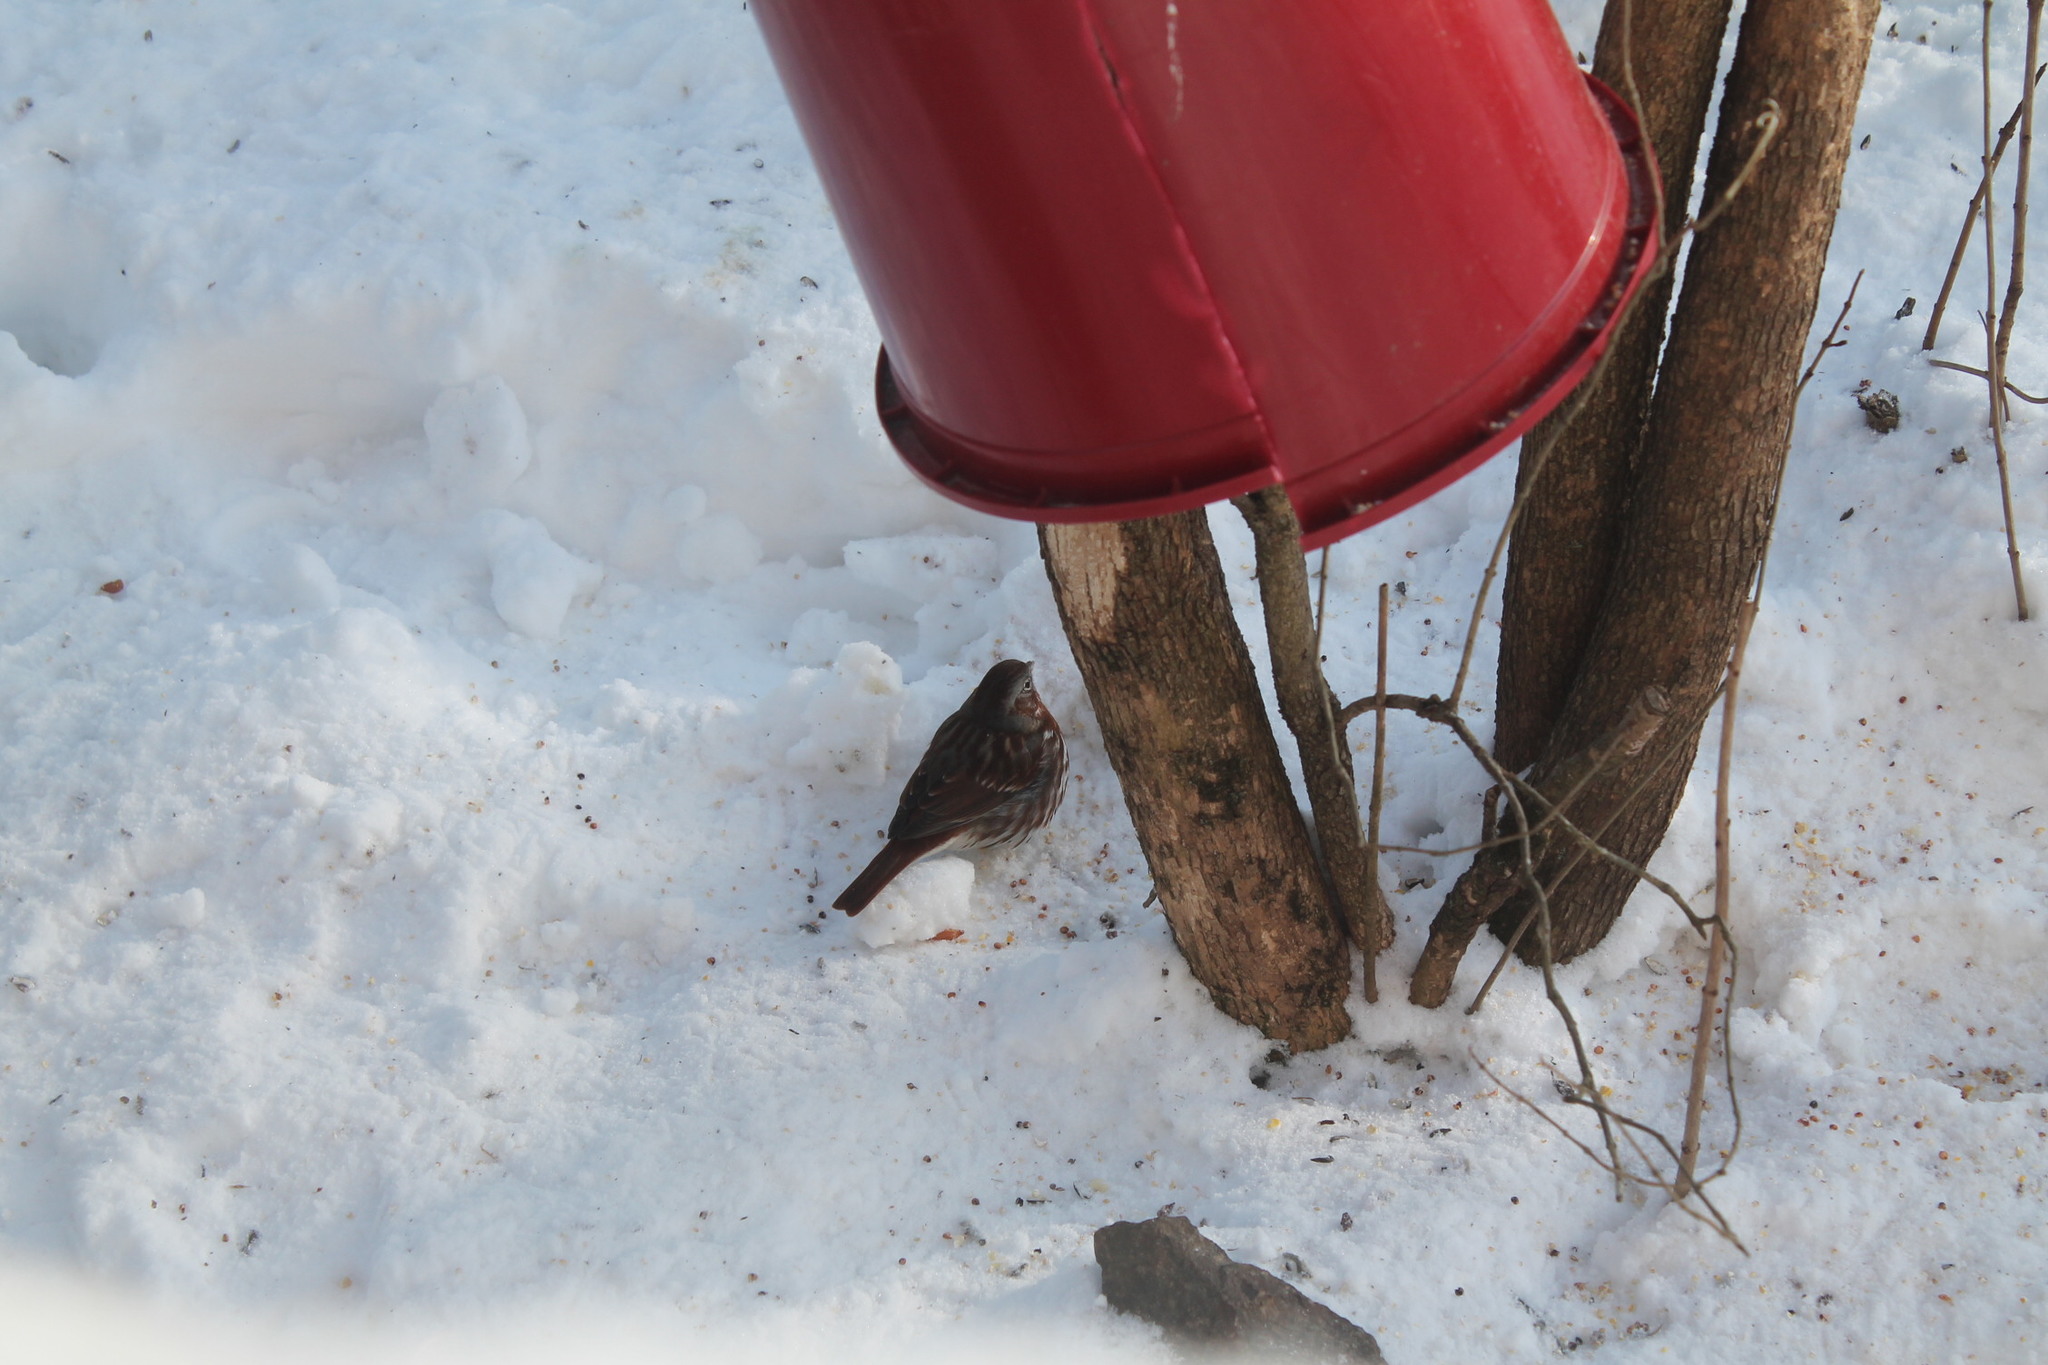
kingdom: Animalia
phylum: Chordata
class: Aves
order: Passeriformes
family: Passerellidae
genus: Passerella
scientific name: Passerella iliaca
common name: Fox sparrow
